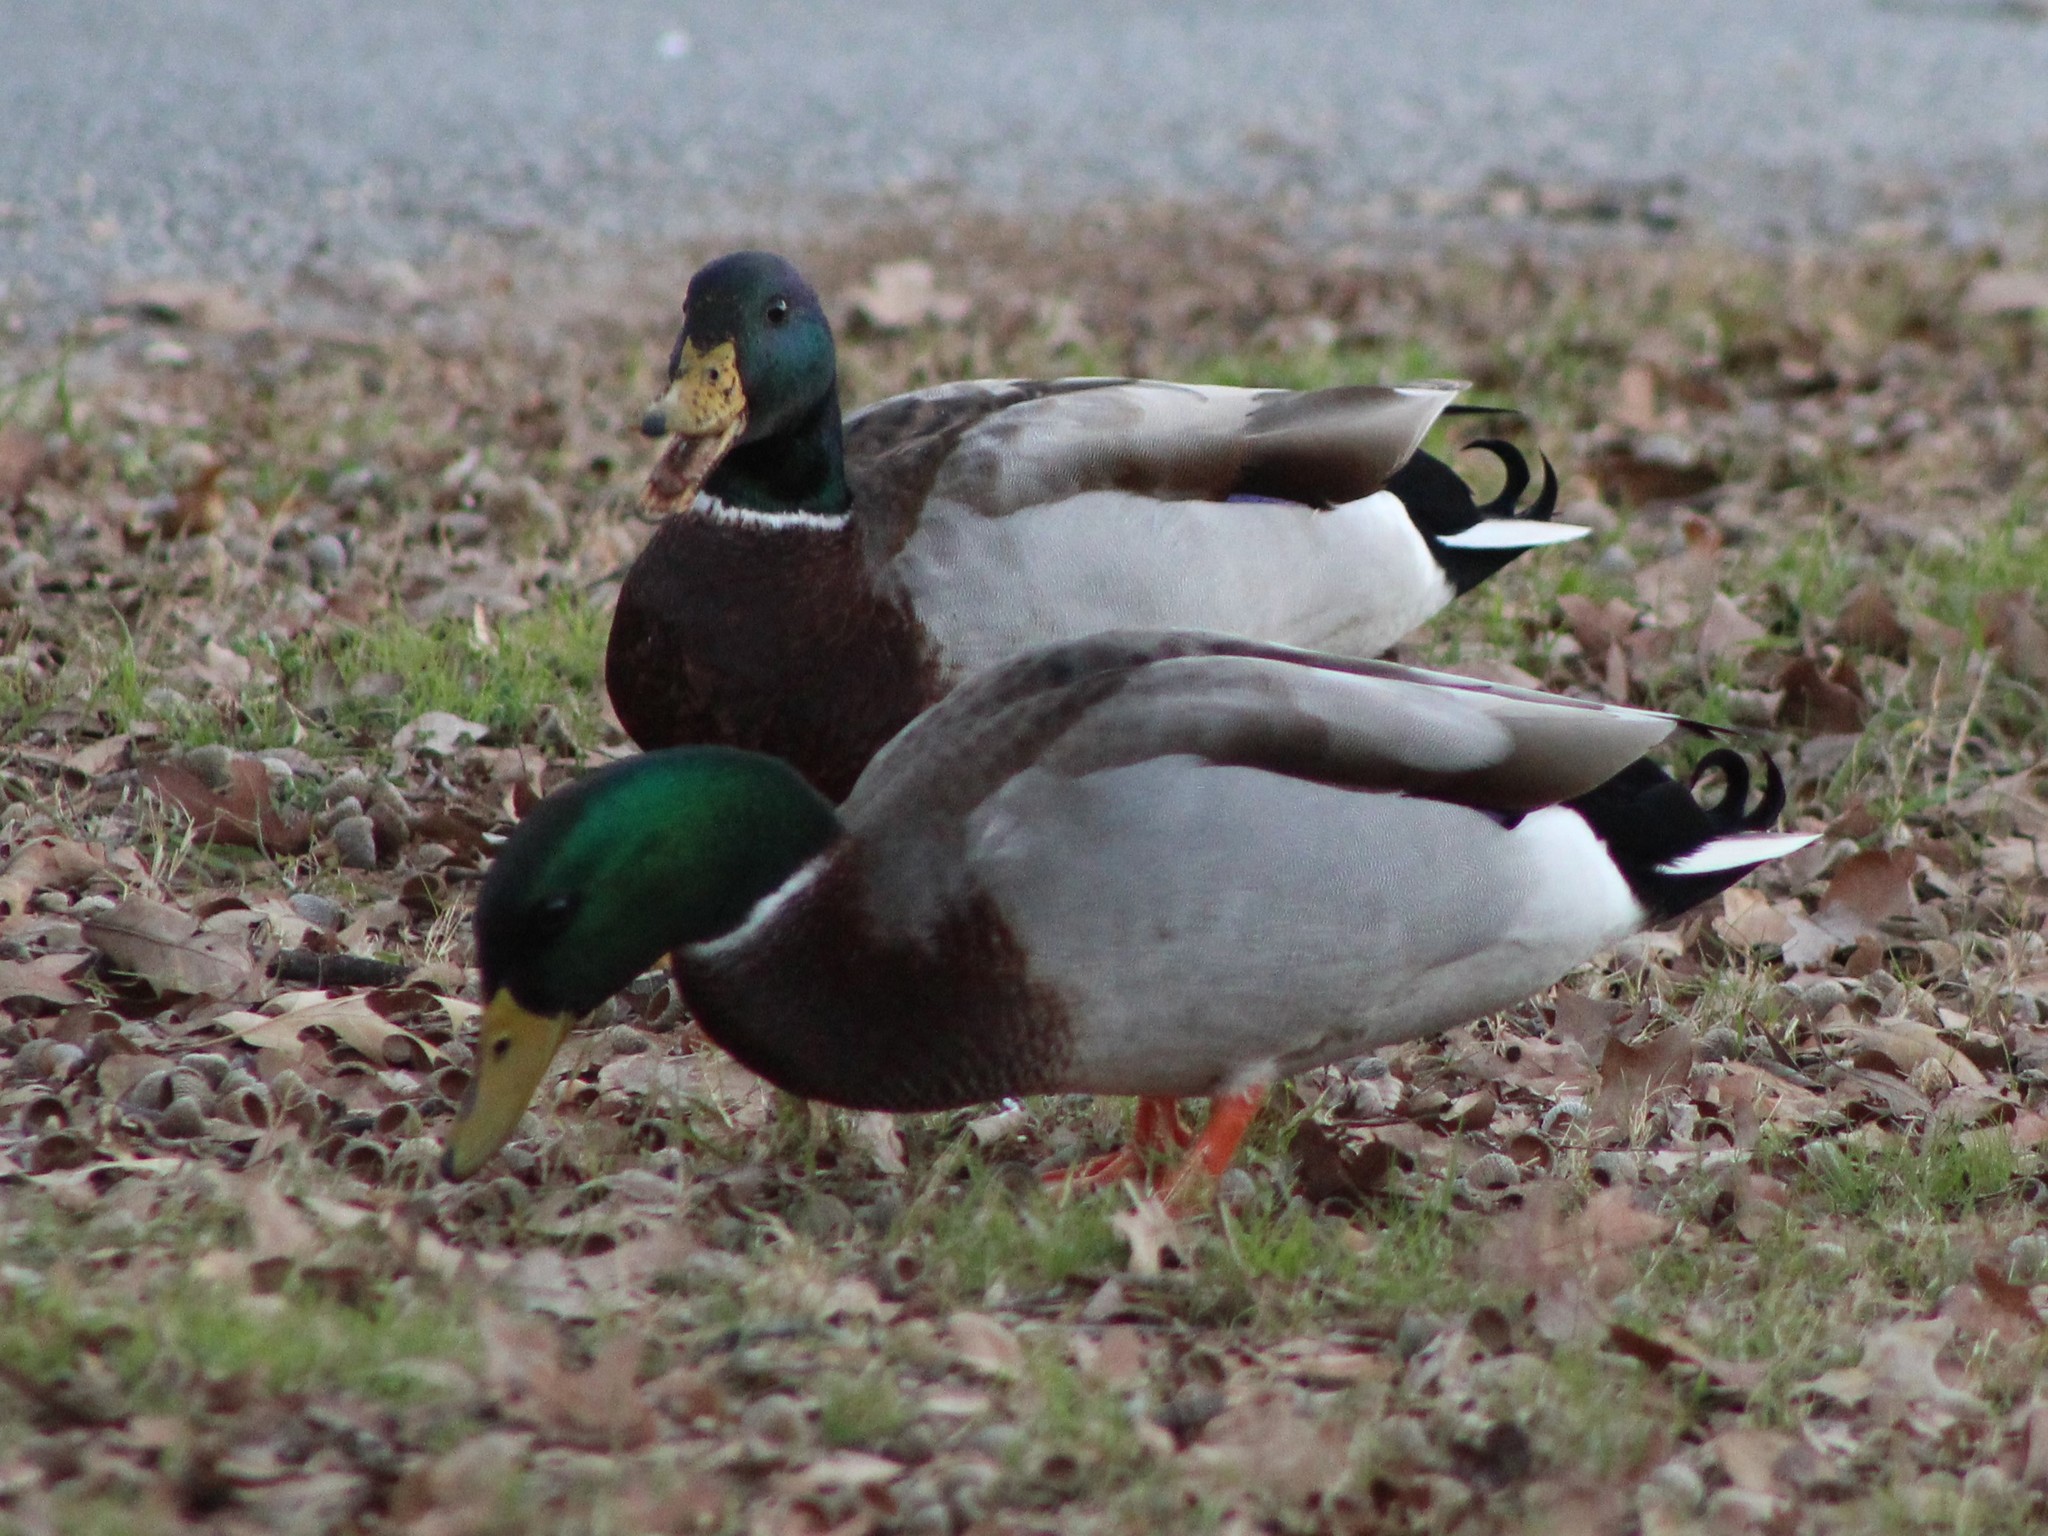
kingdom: Animalia
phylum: Chordata
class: Aves
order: Anseriformes
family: Anatidae
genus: Anas
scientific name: Anas platyrhynchos
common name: Mallard
